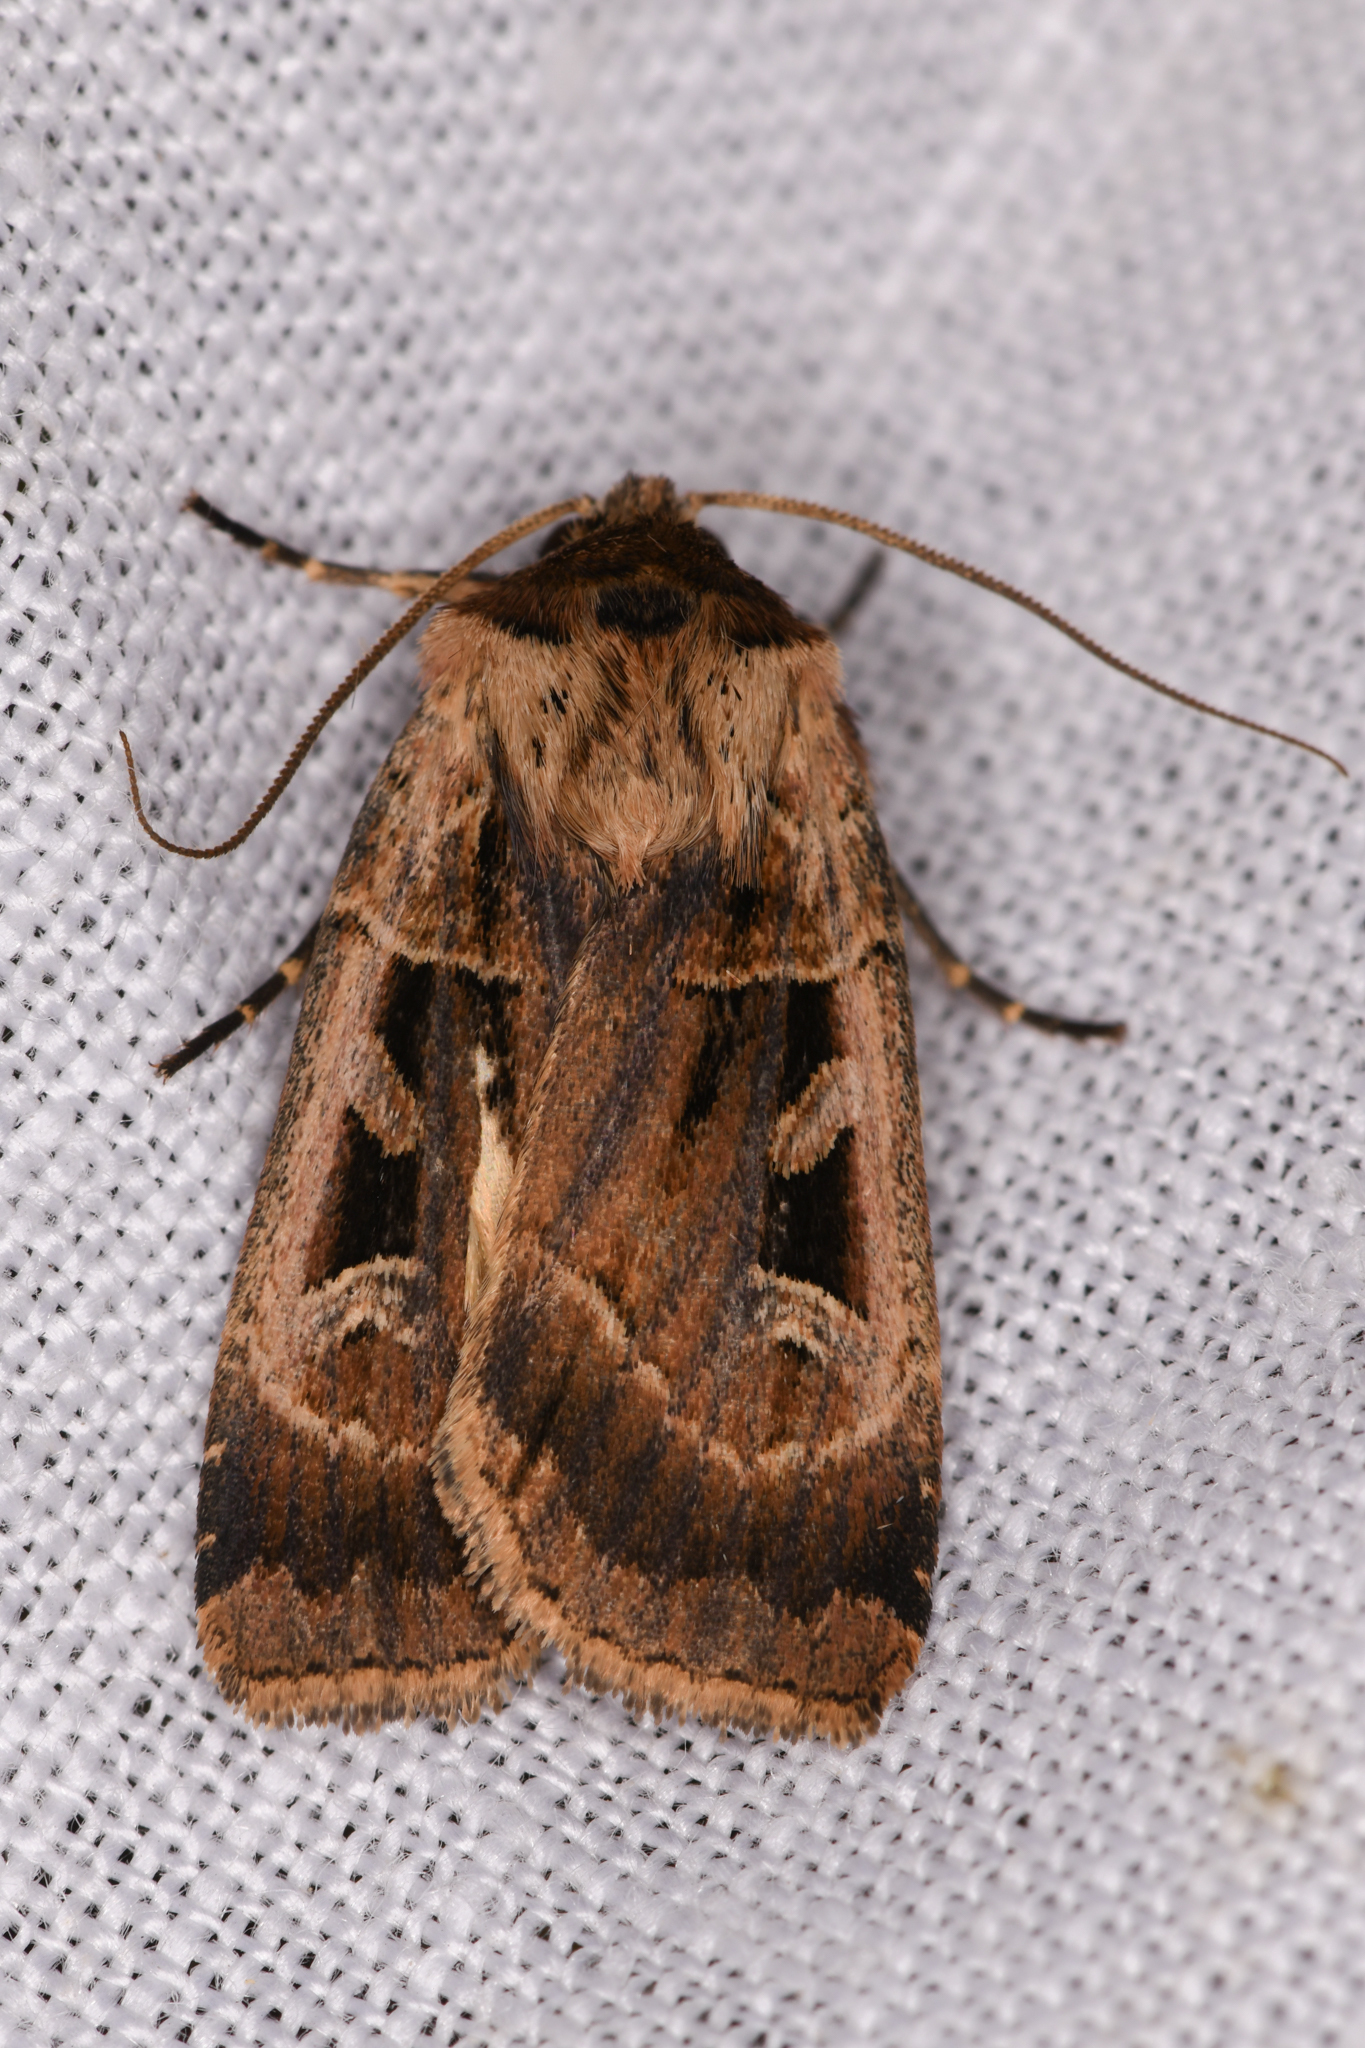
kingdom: Animalia
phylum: Arthropoda
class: Insecta
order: Lepidoptera
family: Noctuidae
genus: Pseudohermonassa
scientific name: Pseudohermonassa flavotincta
